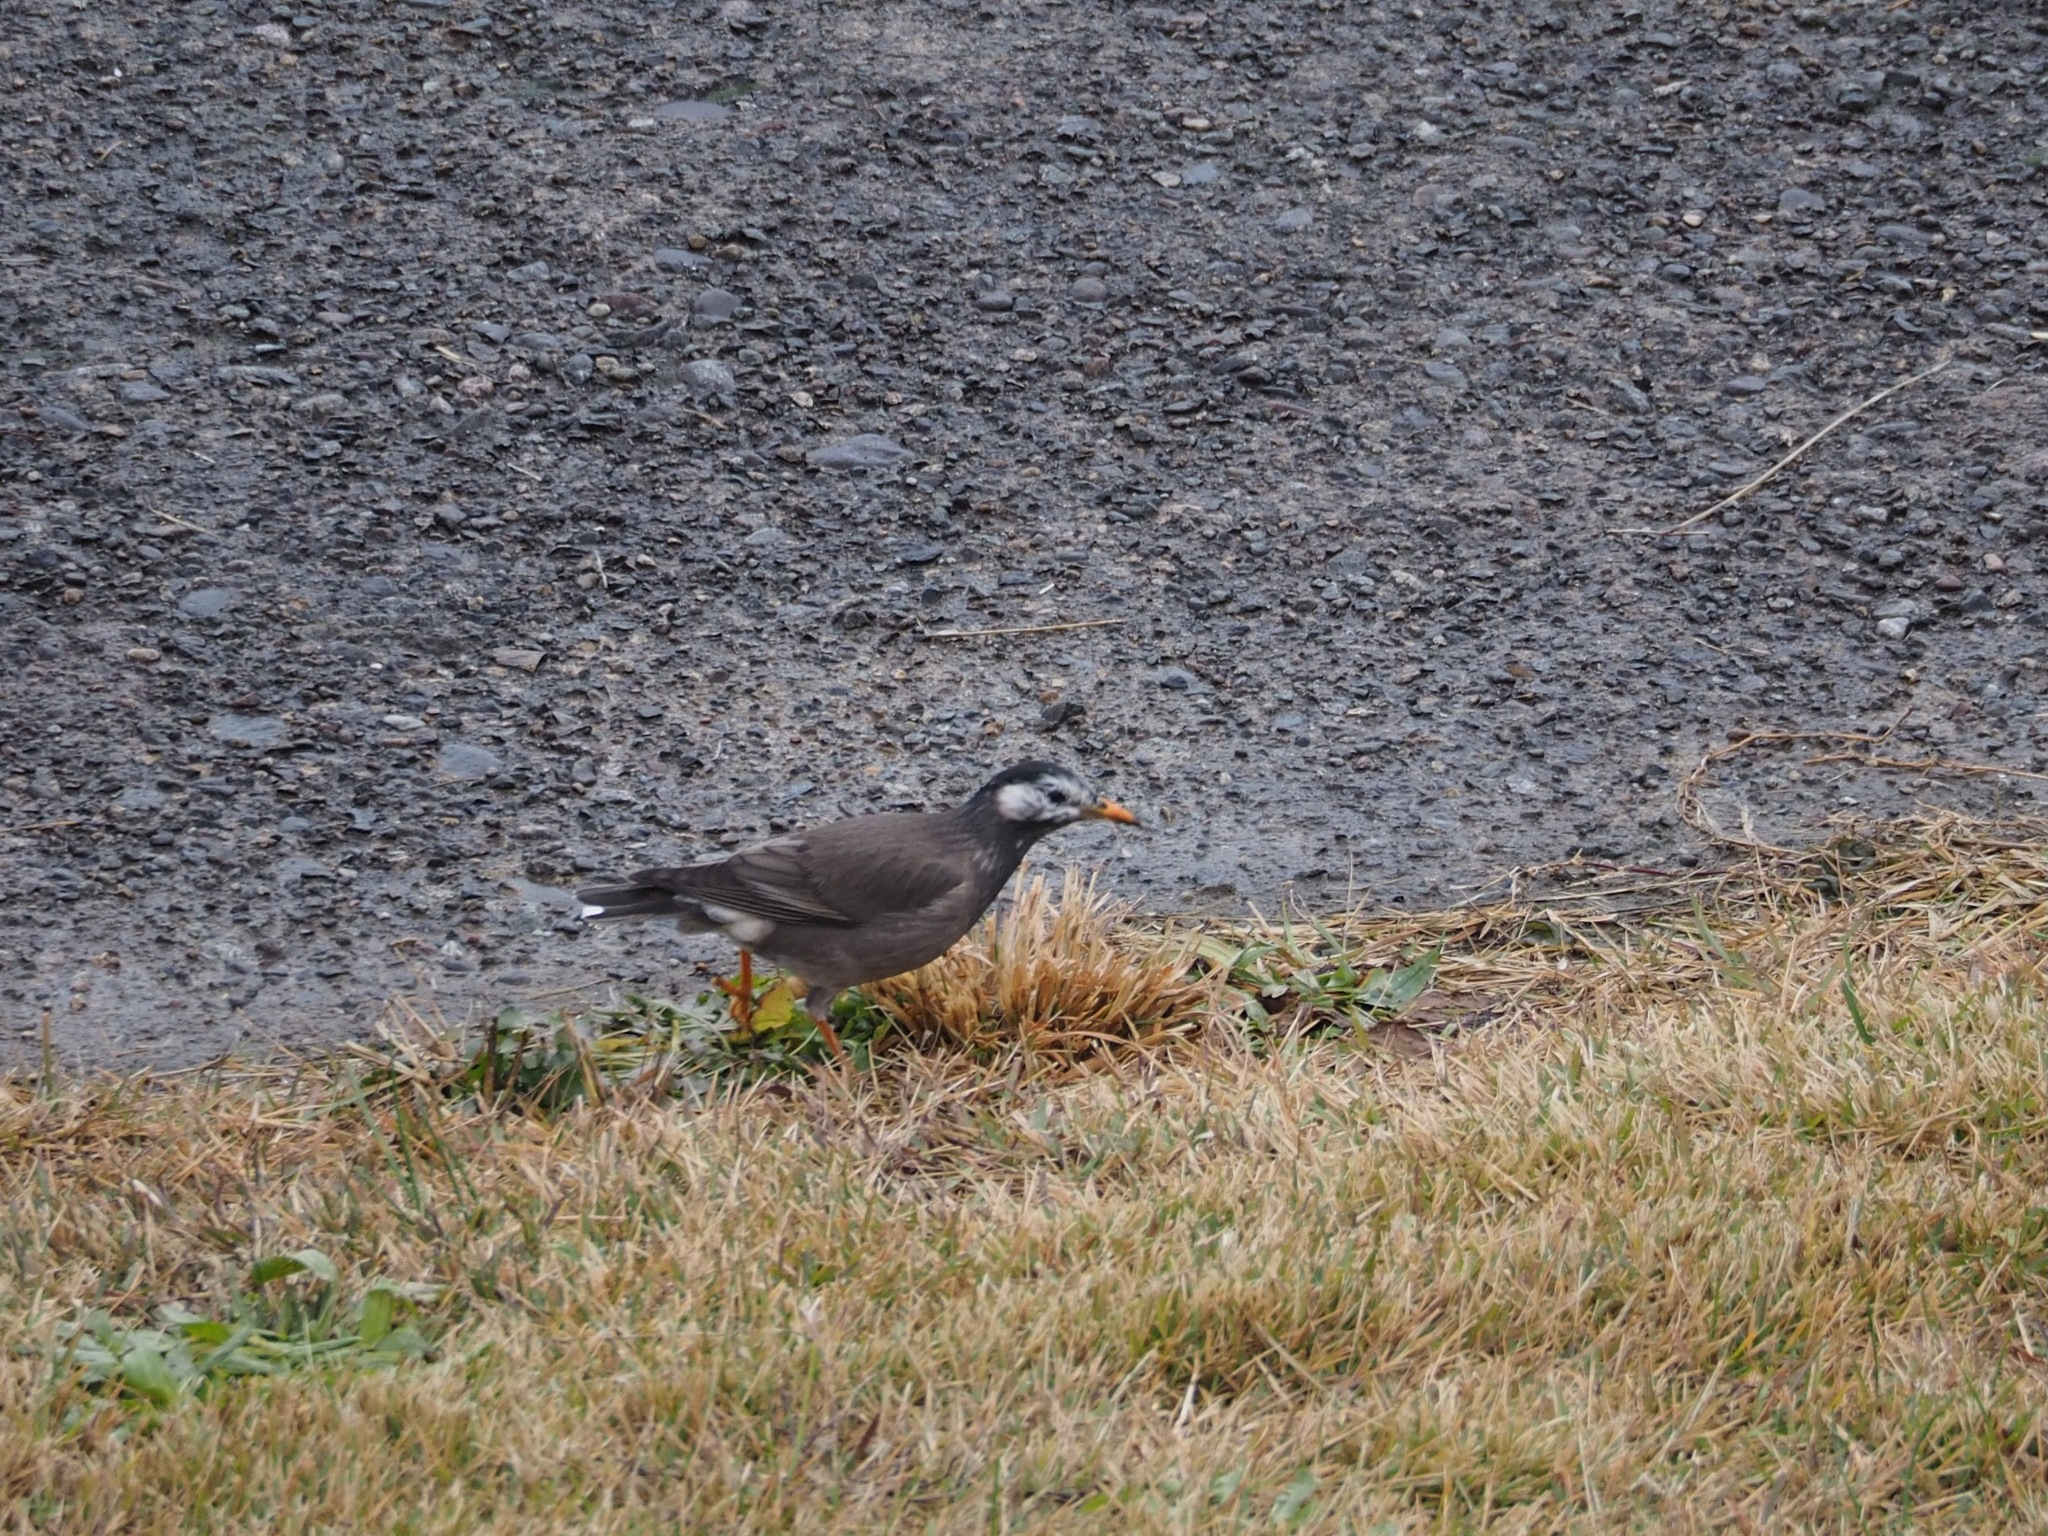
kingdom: Animalia
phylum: Chordata
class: Aves
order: Passeriformes
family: Sturnidae
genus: Spodiopsar
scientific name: Spodiopsar cineraceus
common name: White-cheeked starling
